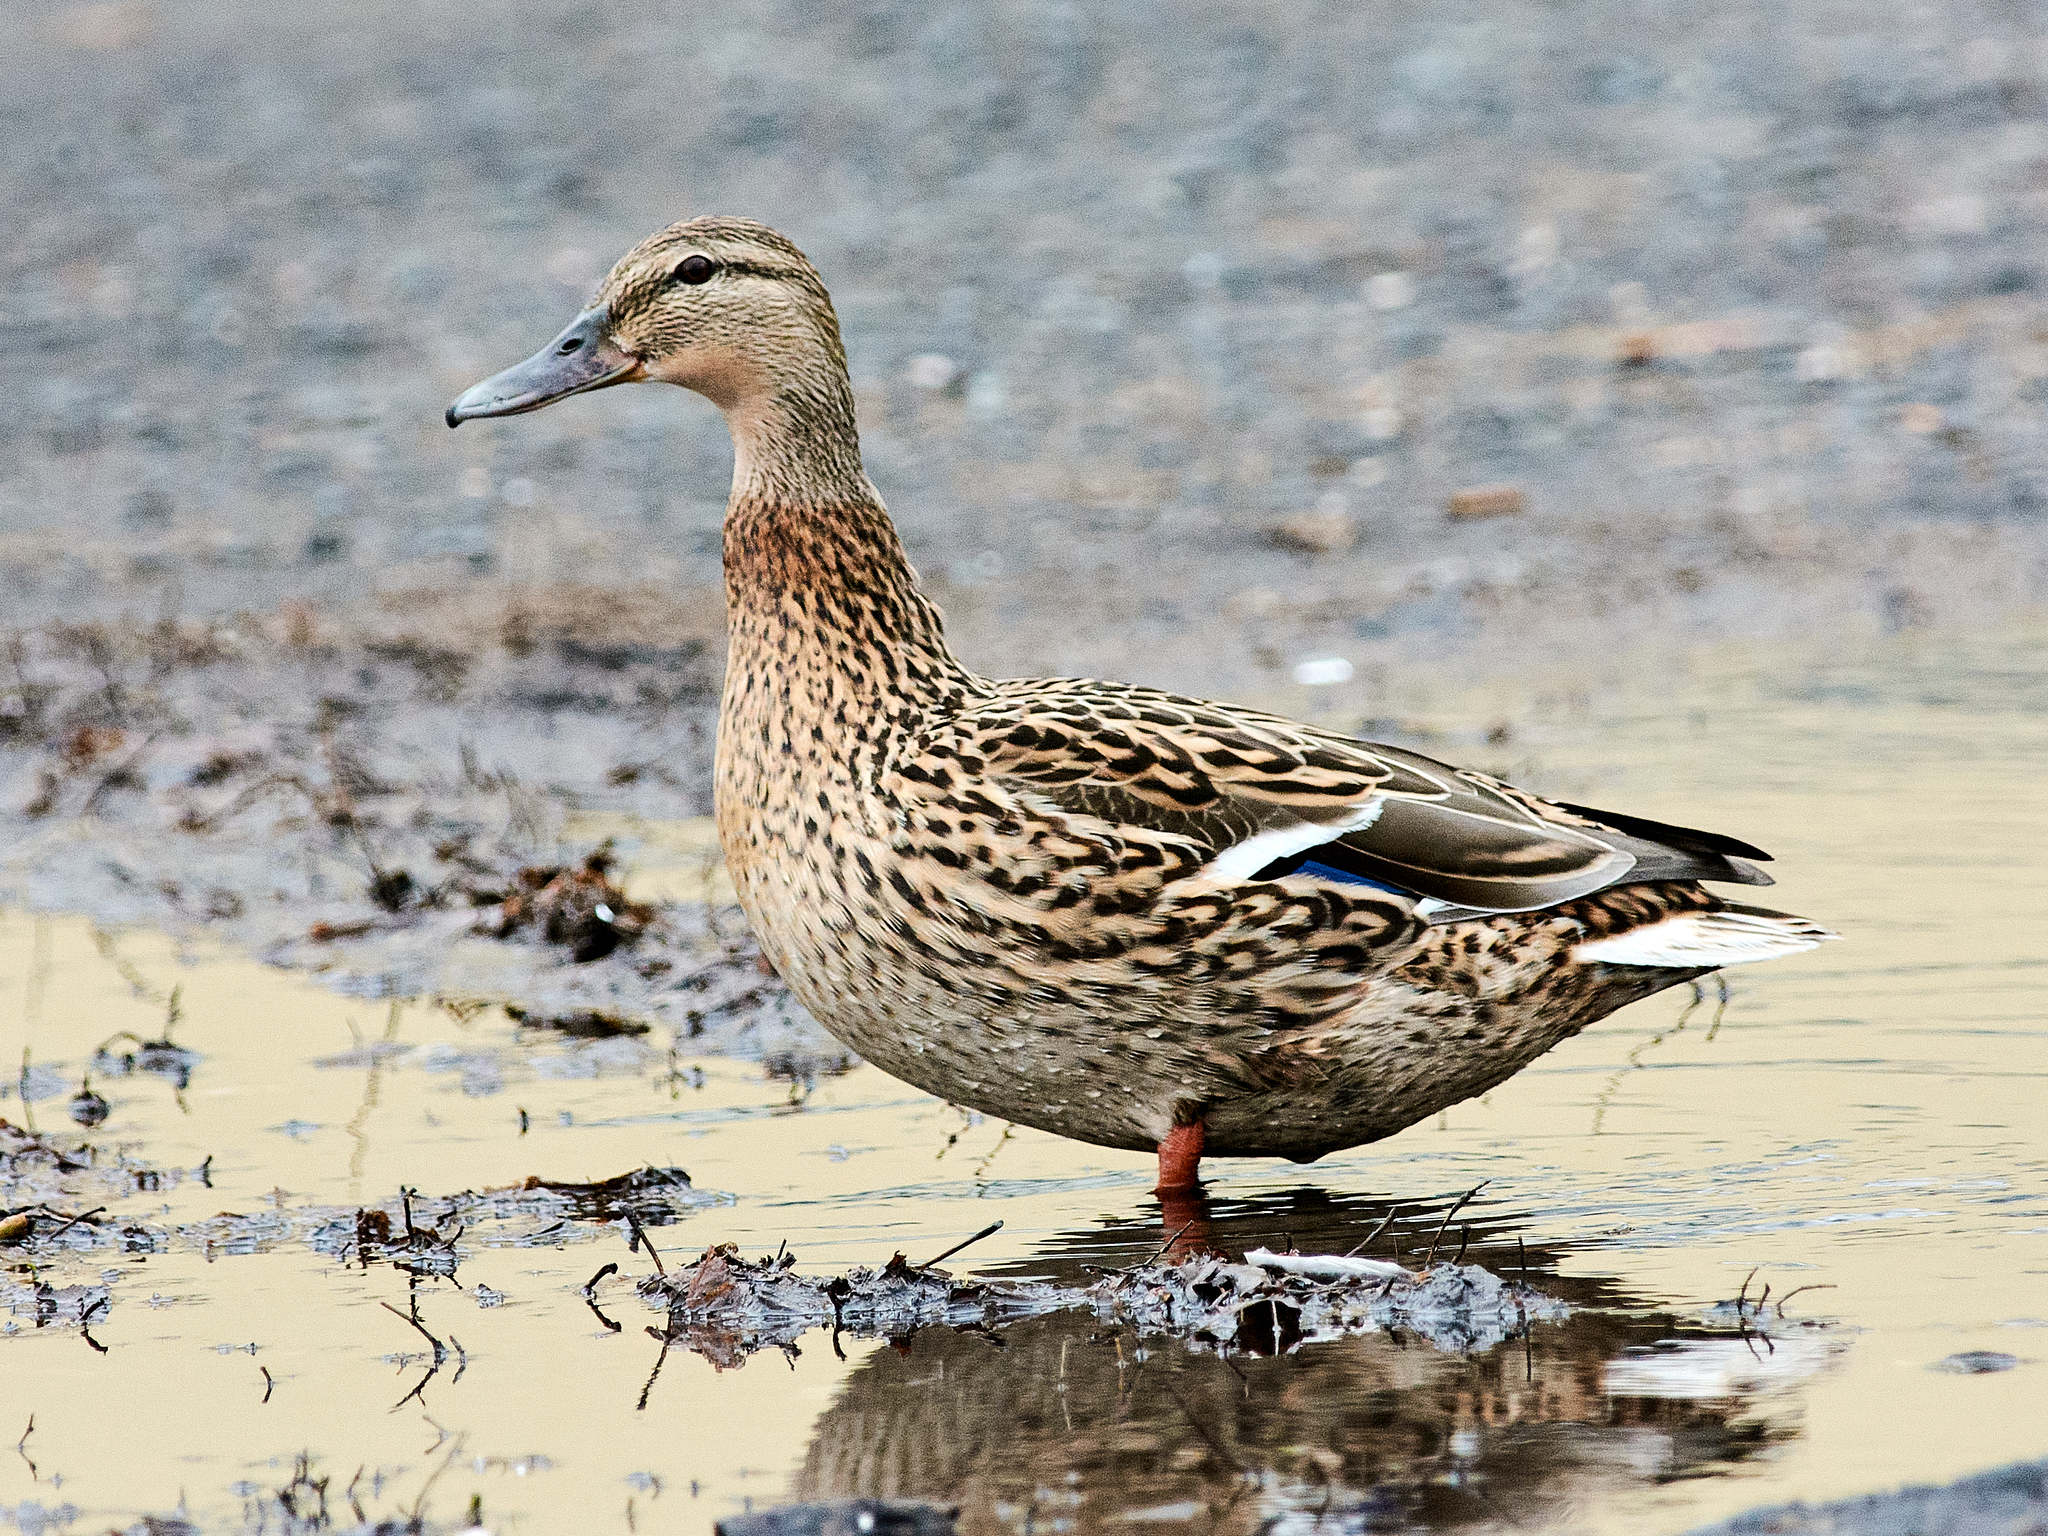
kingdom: Animalia
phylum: Chordata
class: Aves
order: Anseriformes
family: Anatidae
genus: Anas
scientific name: Anas platyrhynchos
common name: Mallard
